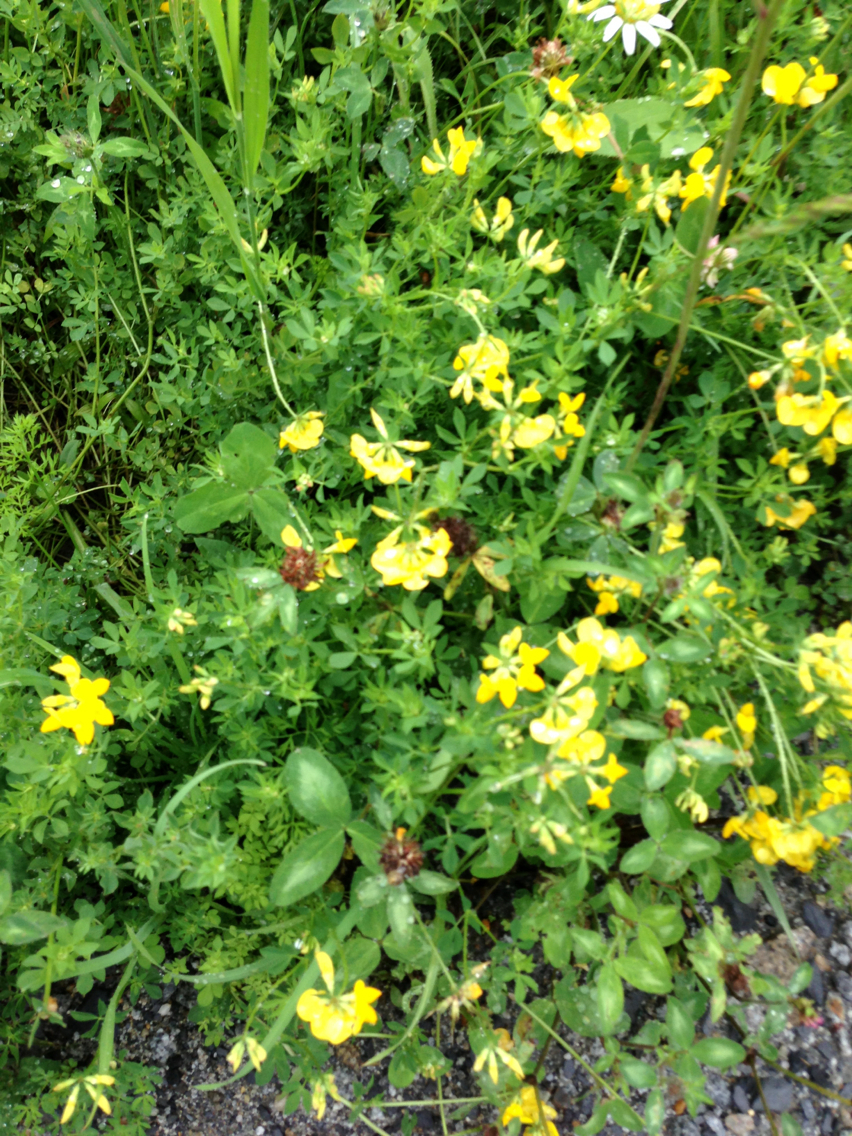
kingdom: Plantae
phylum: Tracheophyta
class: Magnoliopsida
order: Fabales
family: Fabaceae
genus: Lotus
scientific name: Lotus corniculatus
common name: Common bird's-foot-trefoil
